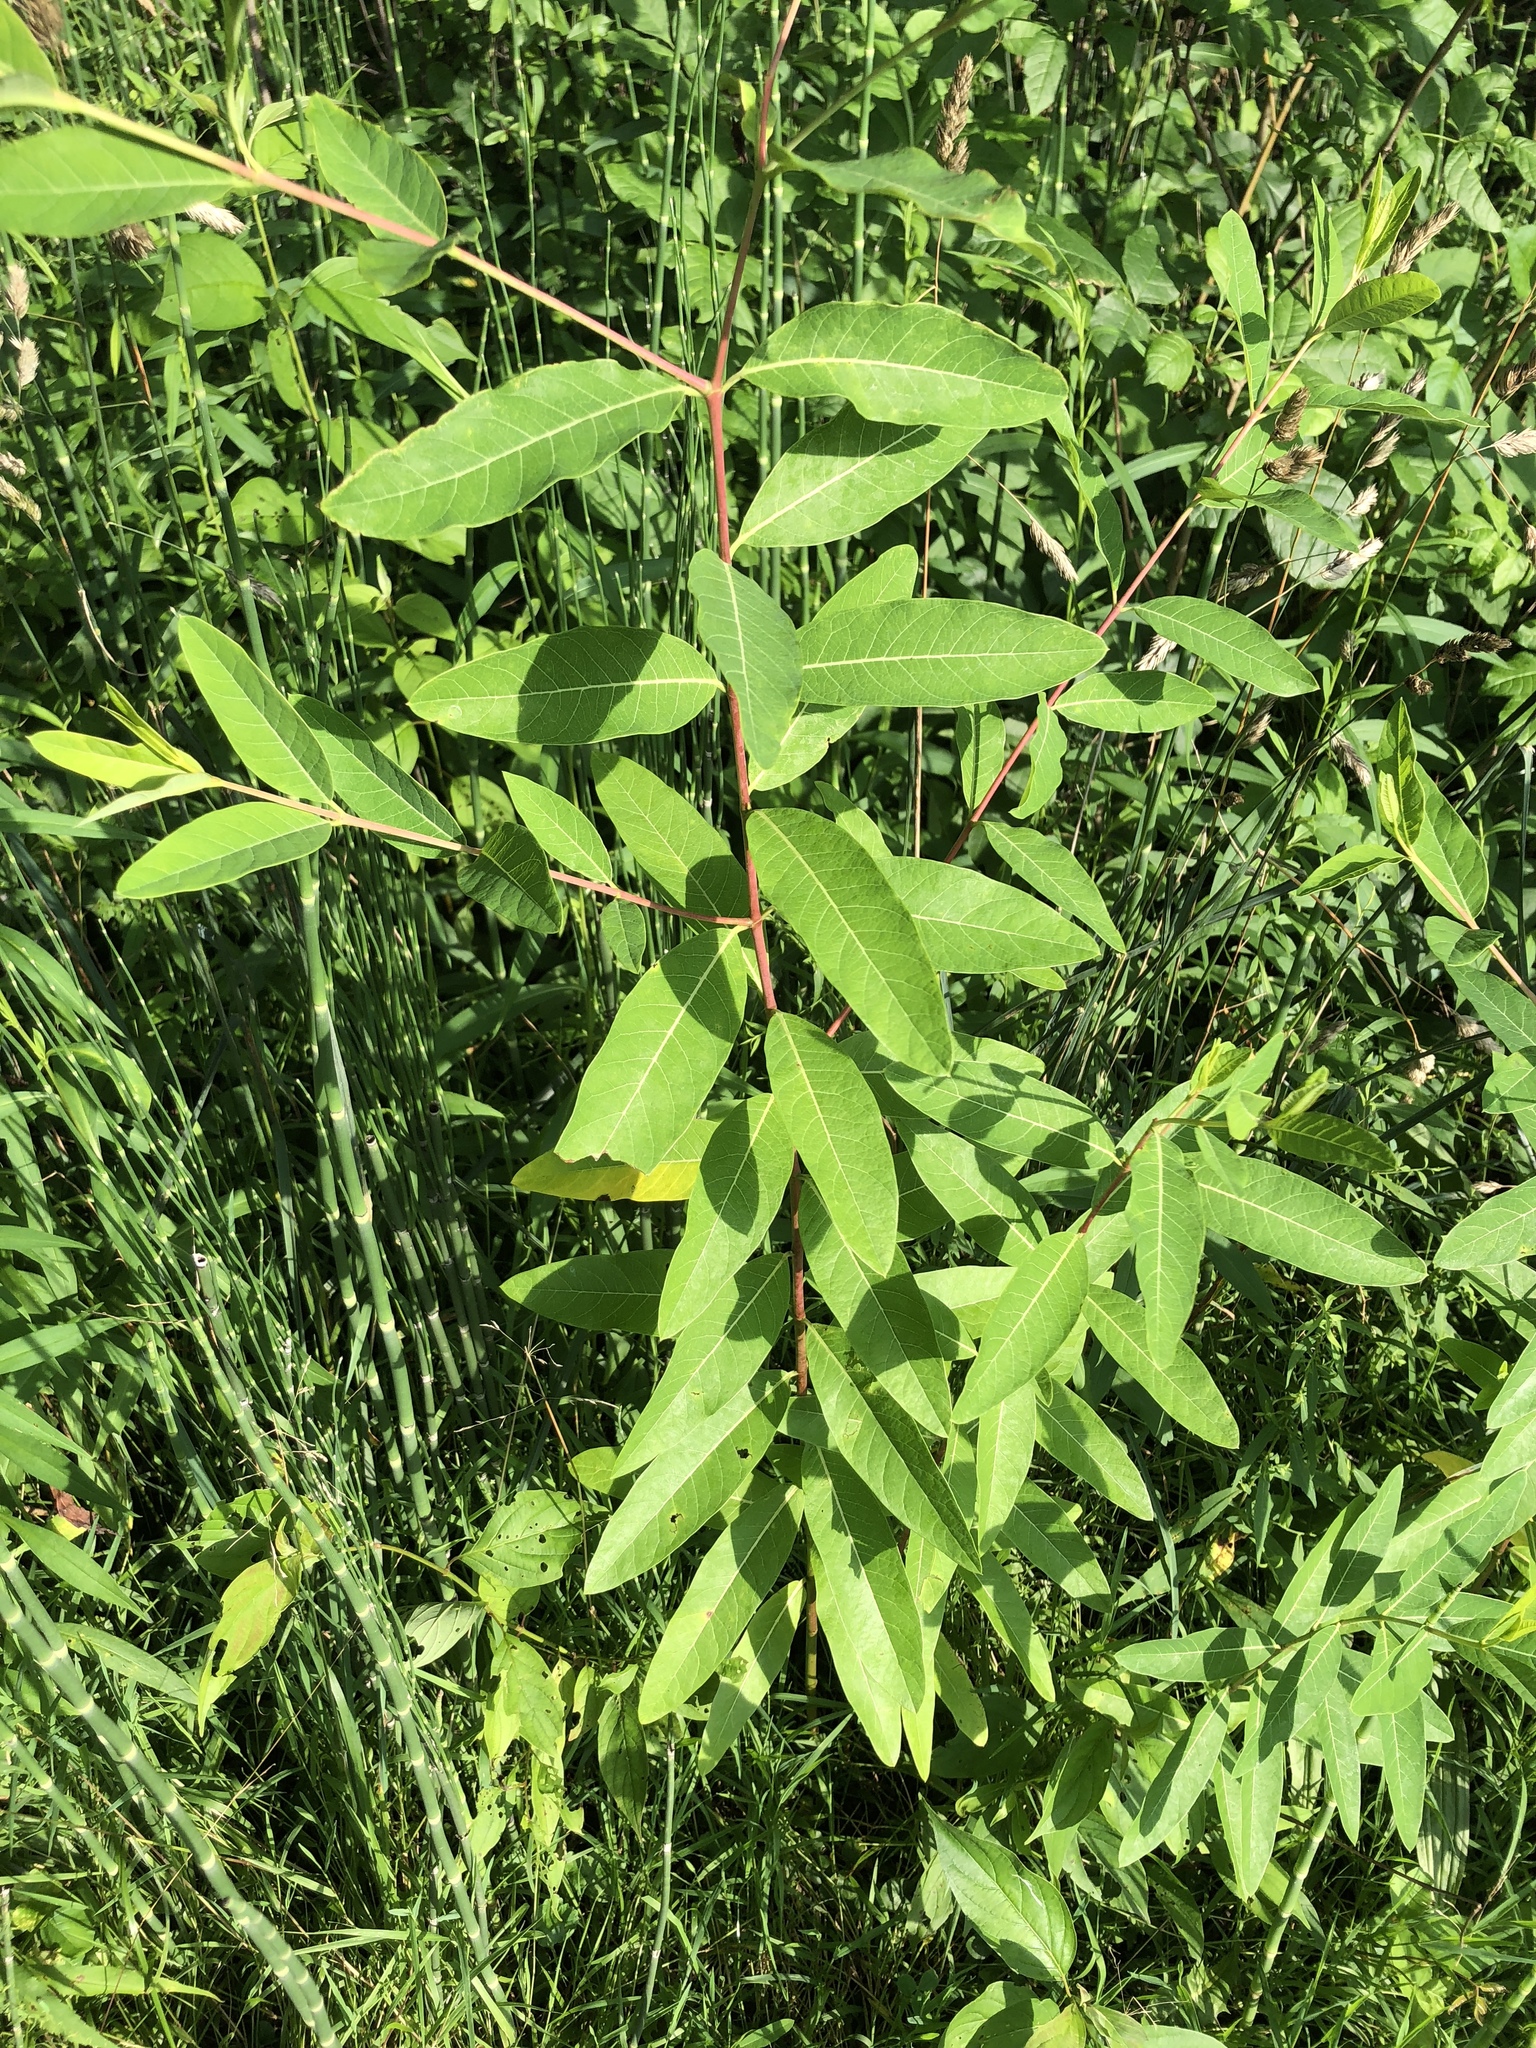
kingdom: Plantae
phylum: Tracheophyta
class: Magnoliopsida
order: Gentianales
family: Apocynaceae
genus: Apocynum
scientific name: Apocynum cannabinum
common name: Hemp dogbane
